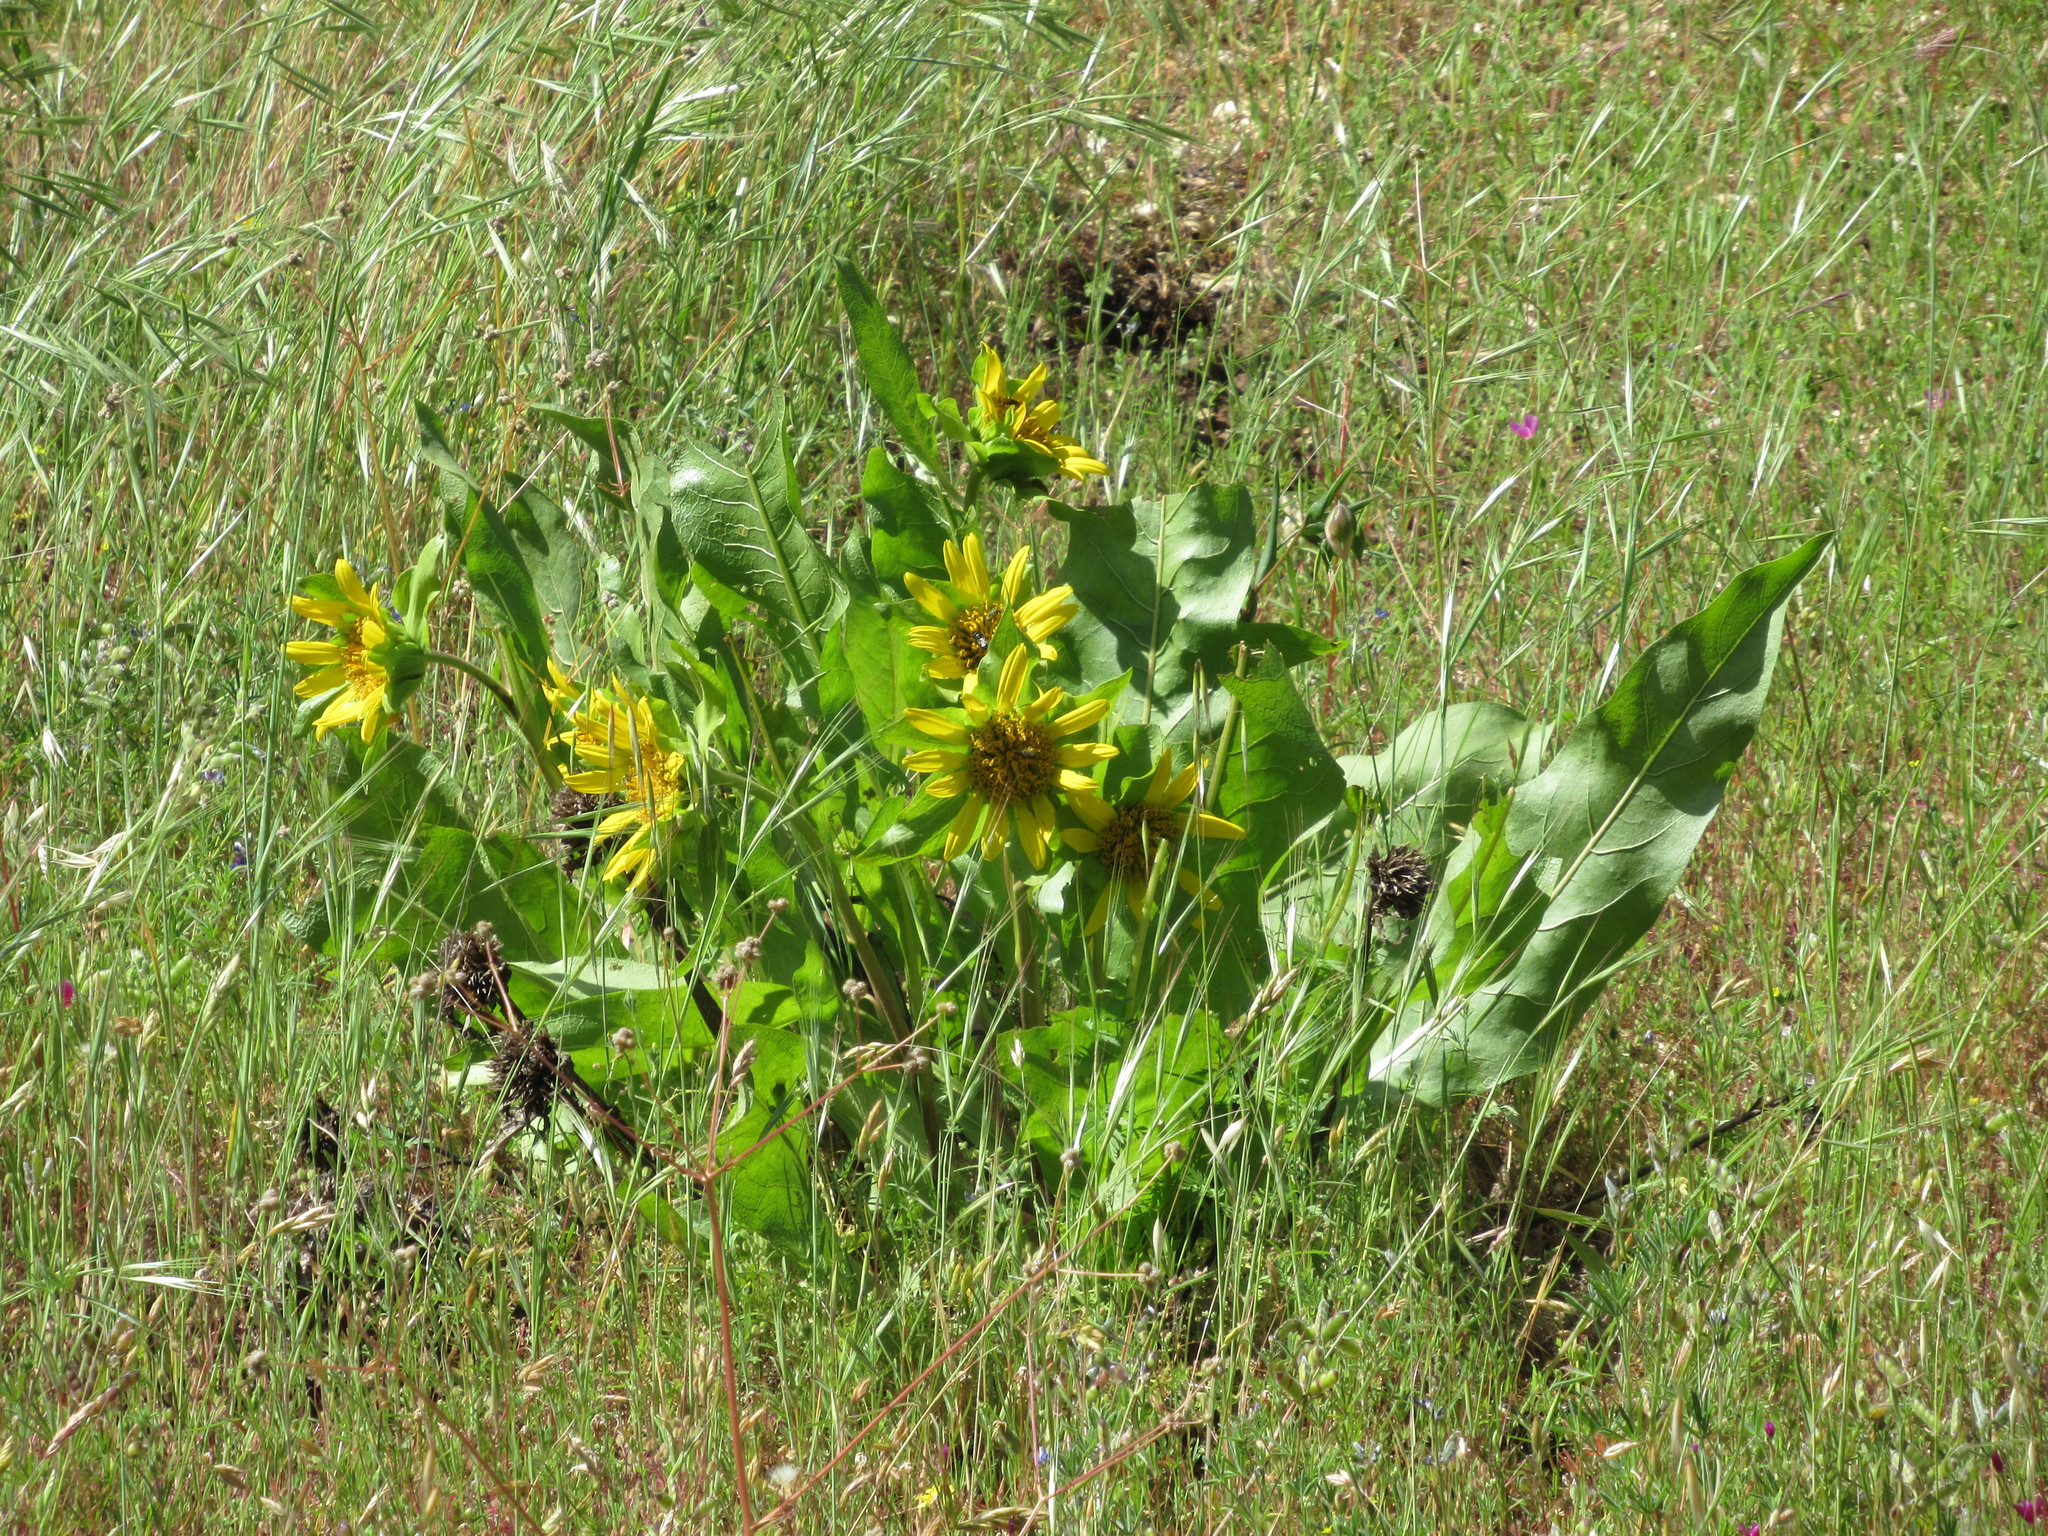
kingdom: Plantae
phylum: Tracheophyta
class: Magnoliopsida
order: Asterales
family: Asteraceae
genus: Wyethia
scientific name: Wyethia glabra
